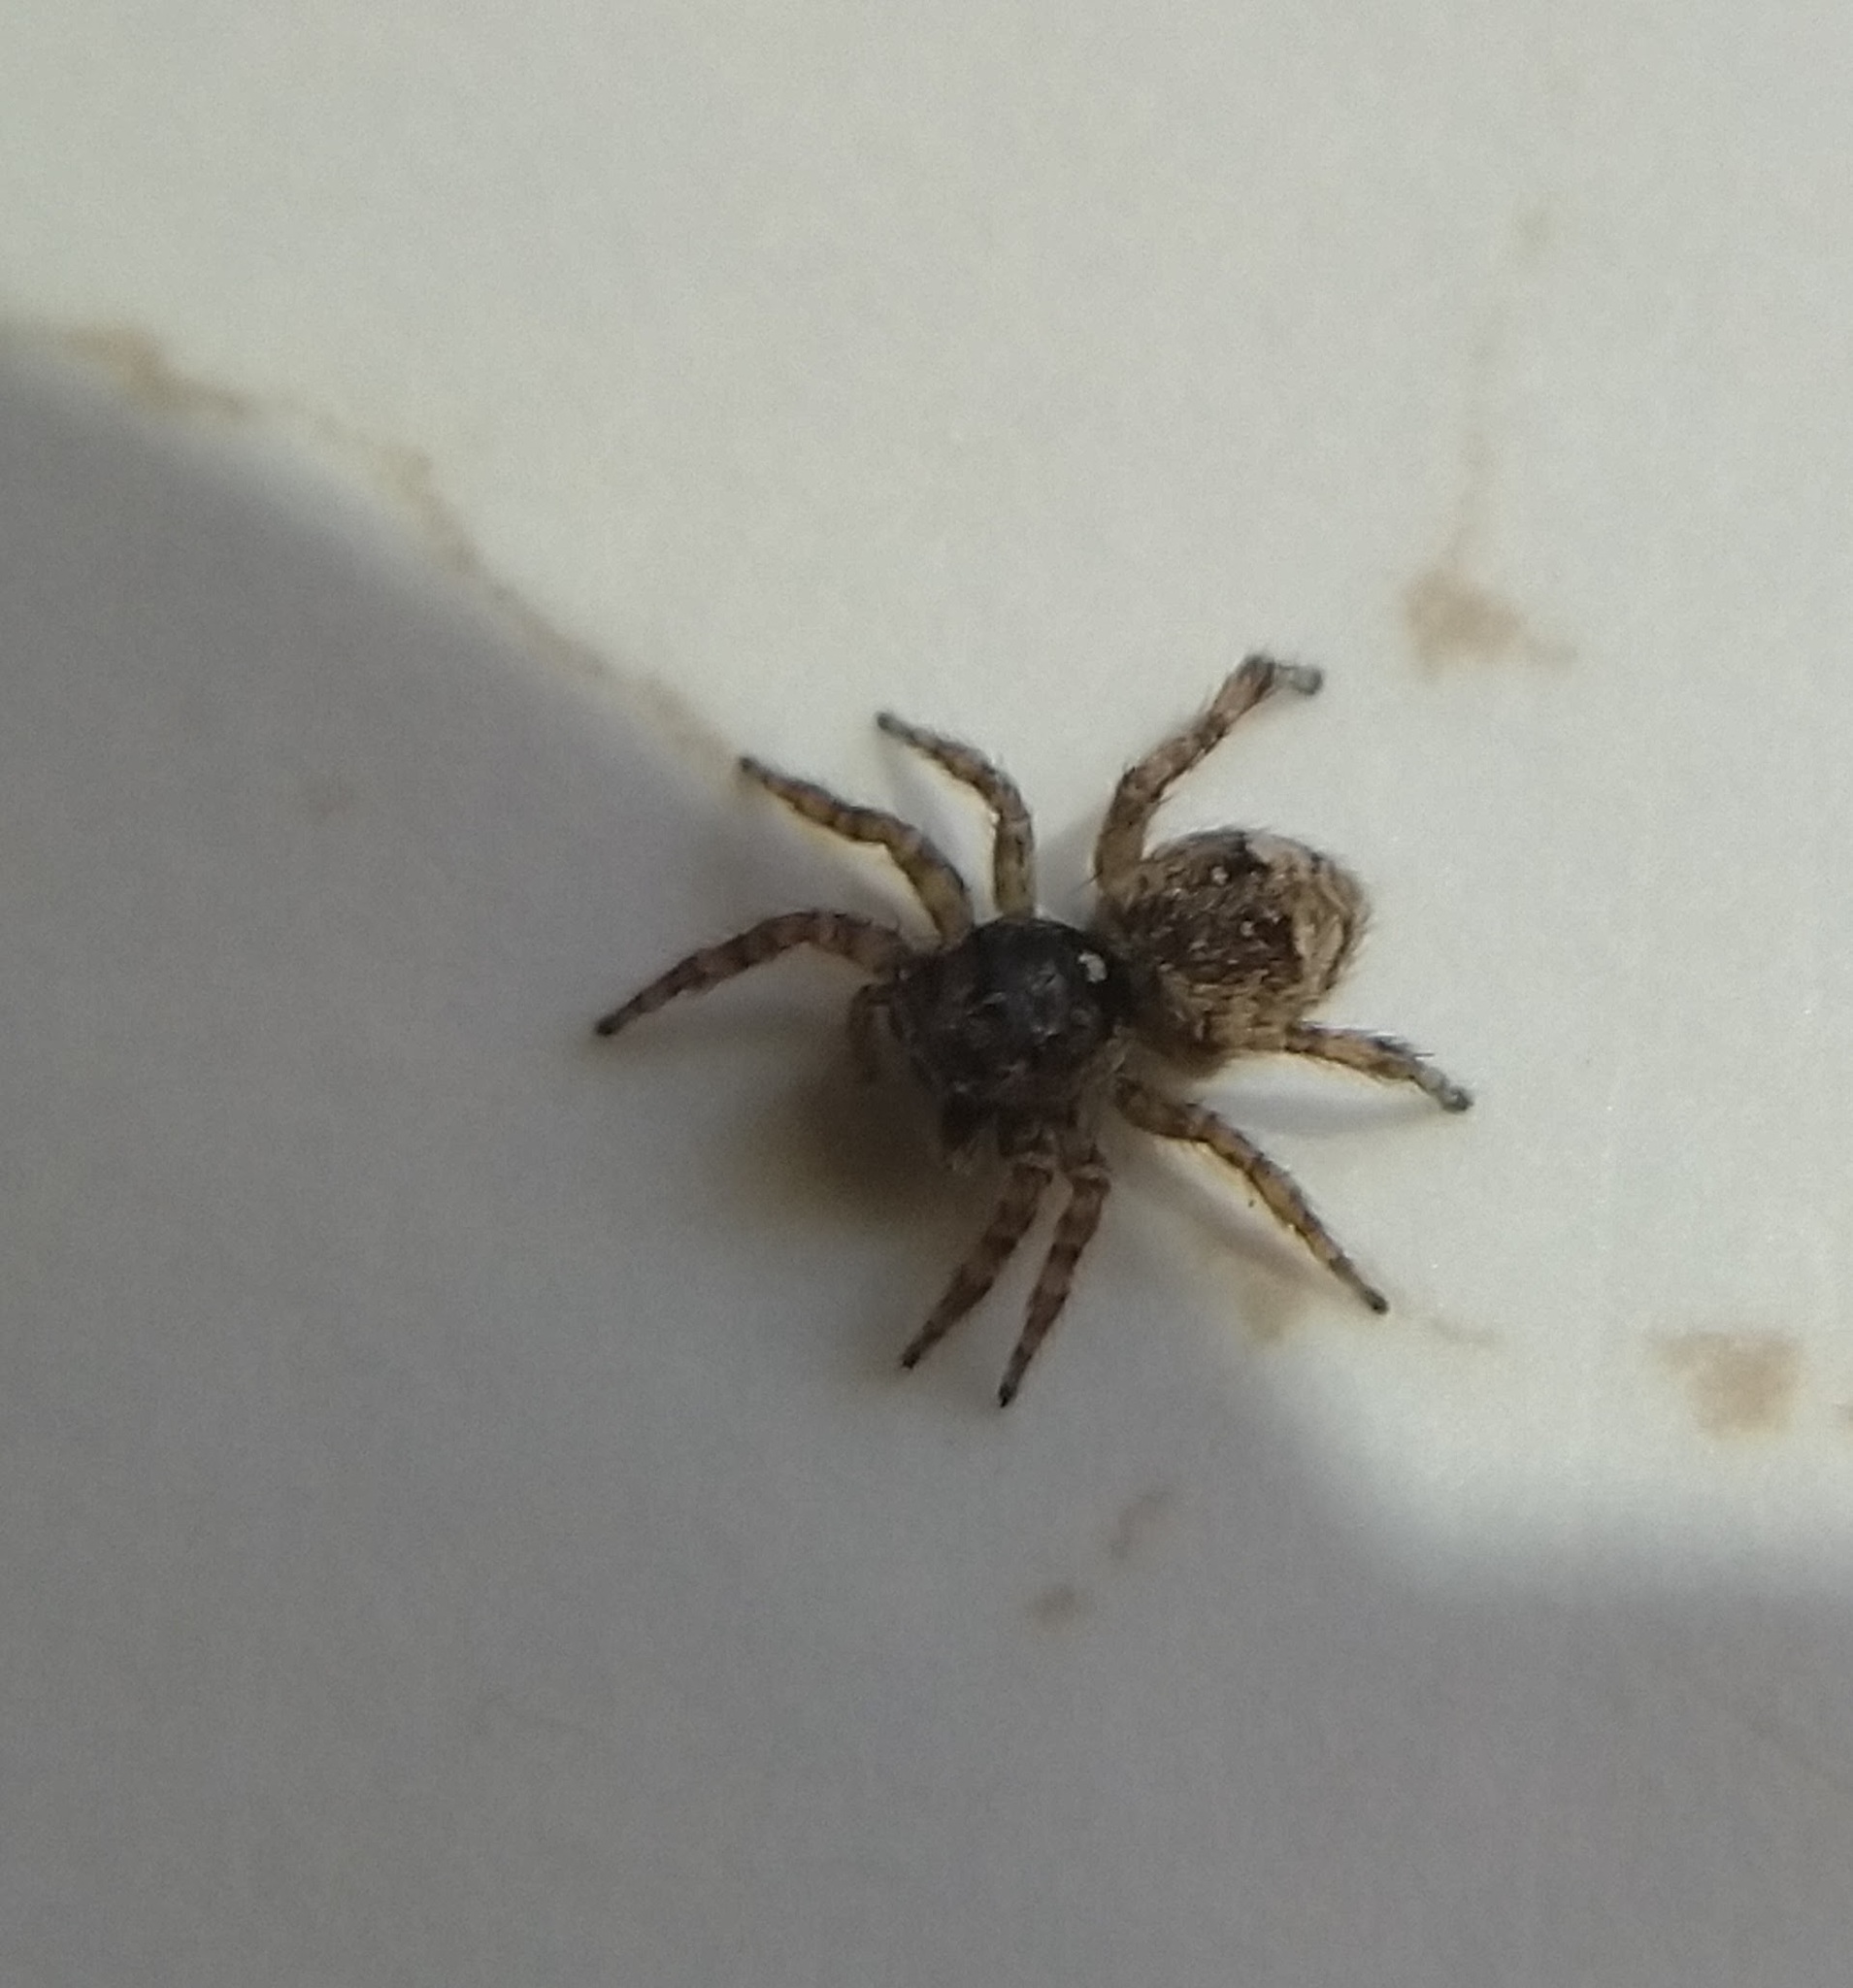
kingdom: Animalia
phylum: Arthropoda
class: Arachnida
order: Araneae
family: Salticidae
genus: Attulus
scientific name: Attulus fasciger
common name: Asiatic wall jumping spider
